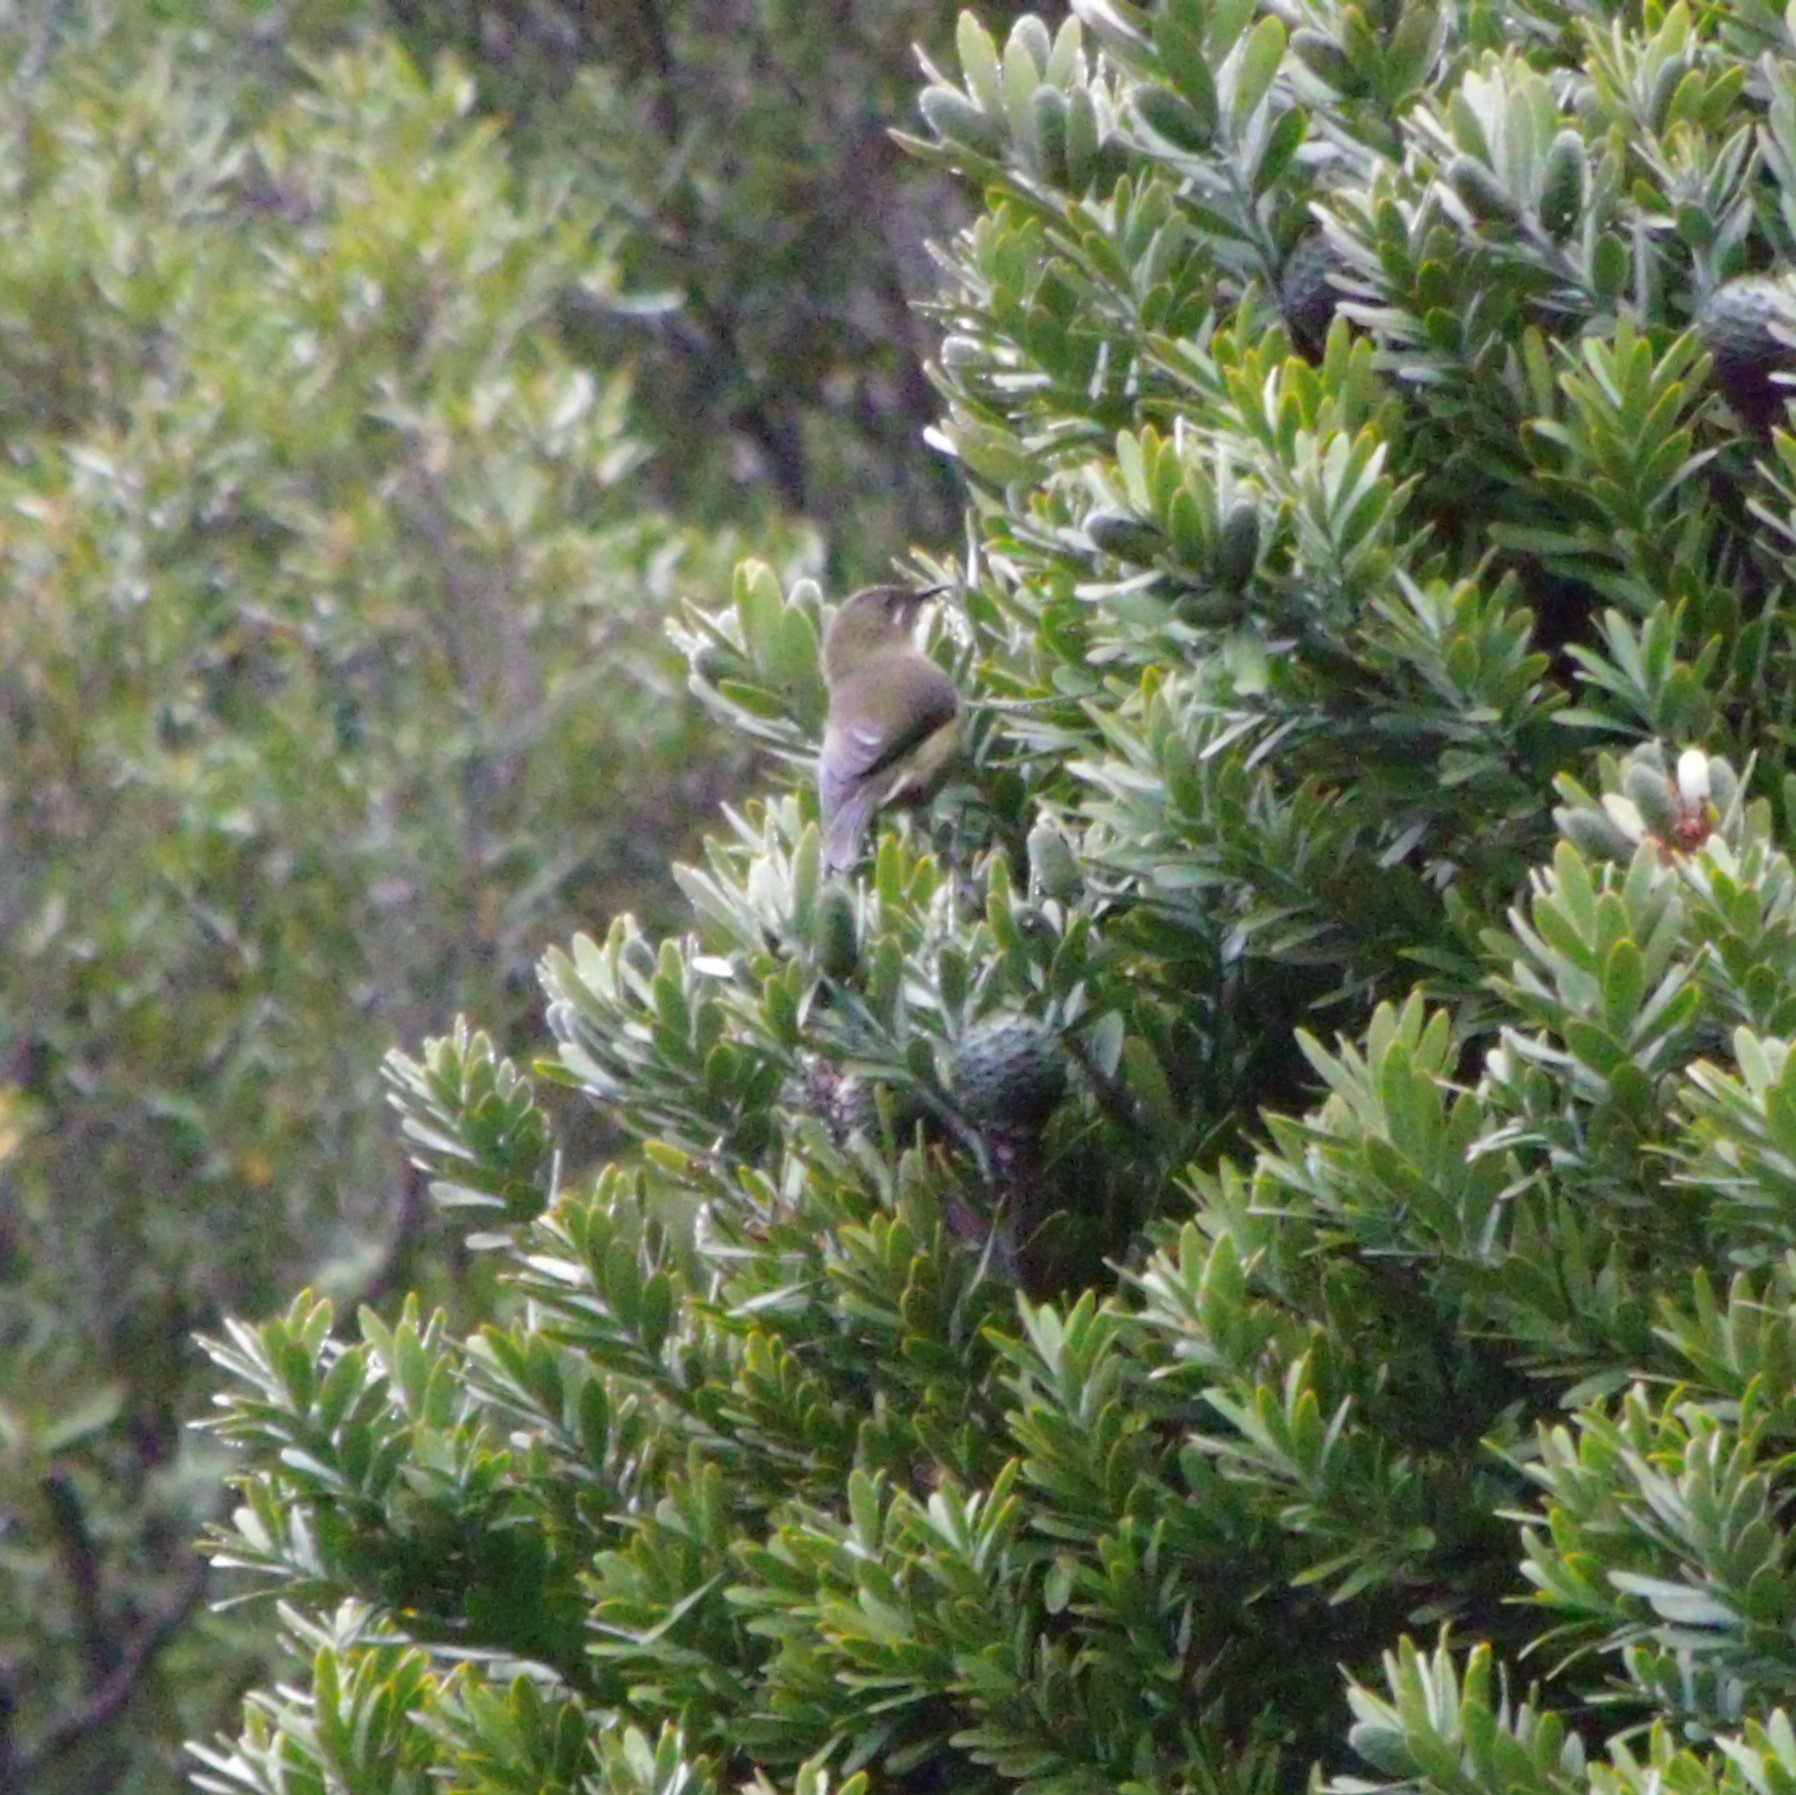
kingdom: Animalia
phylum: Chordata
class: Aves
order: Passeriformes
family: Meliphagidae
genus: Anthornis
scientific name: Anthornis melanura
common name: New zealand bellbird
